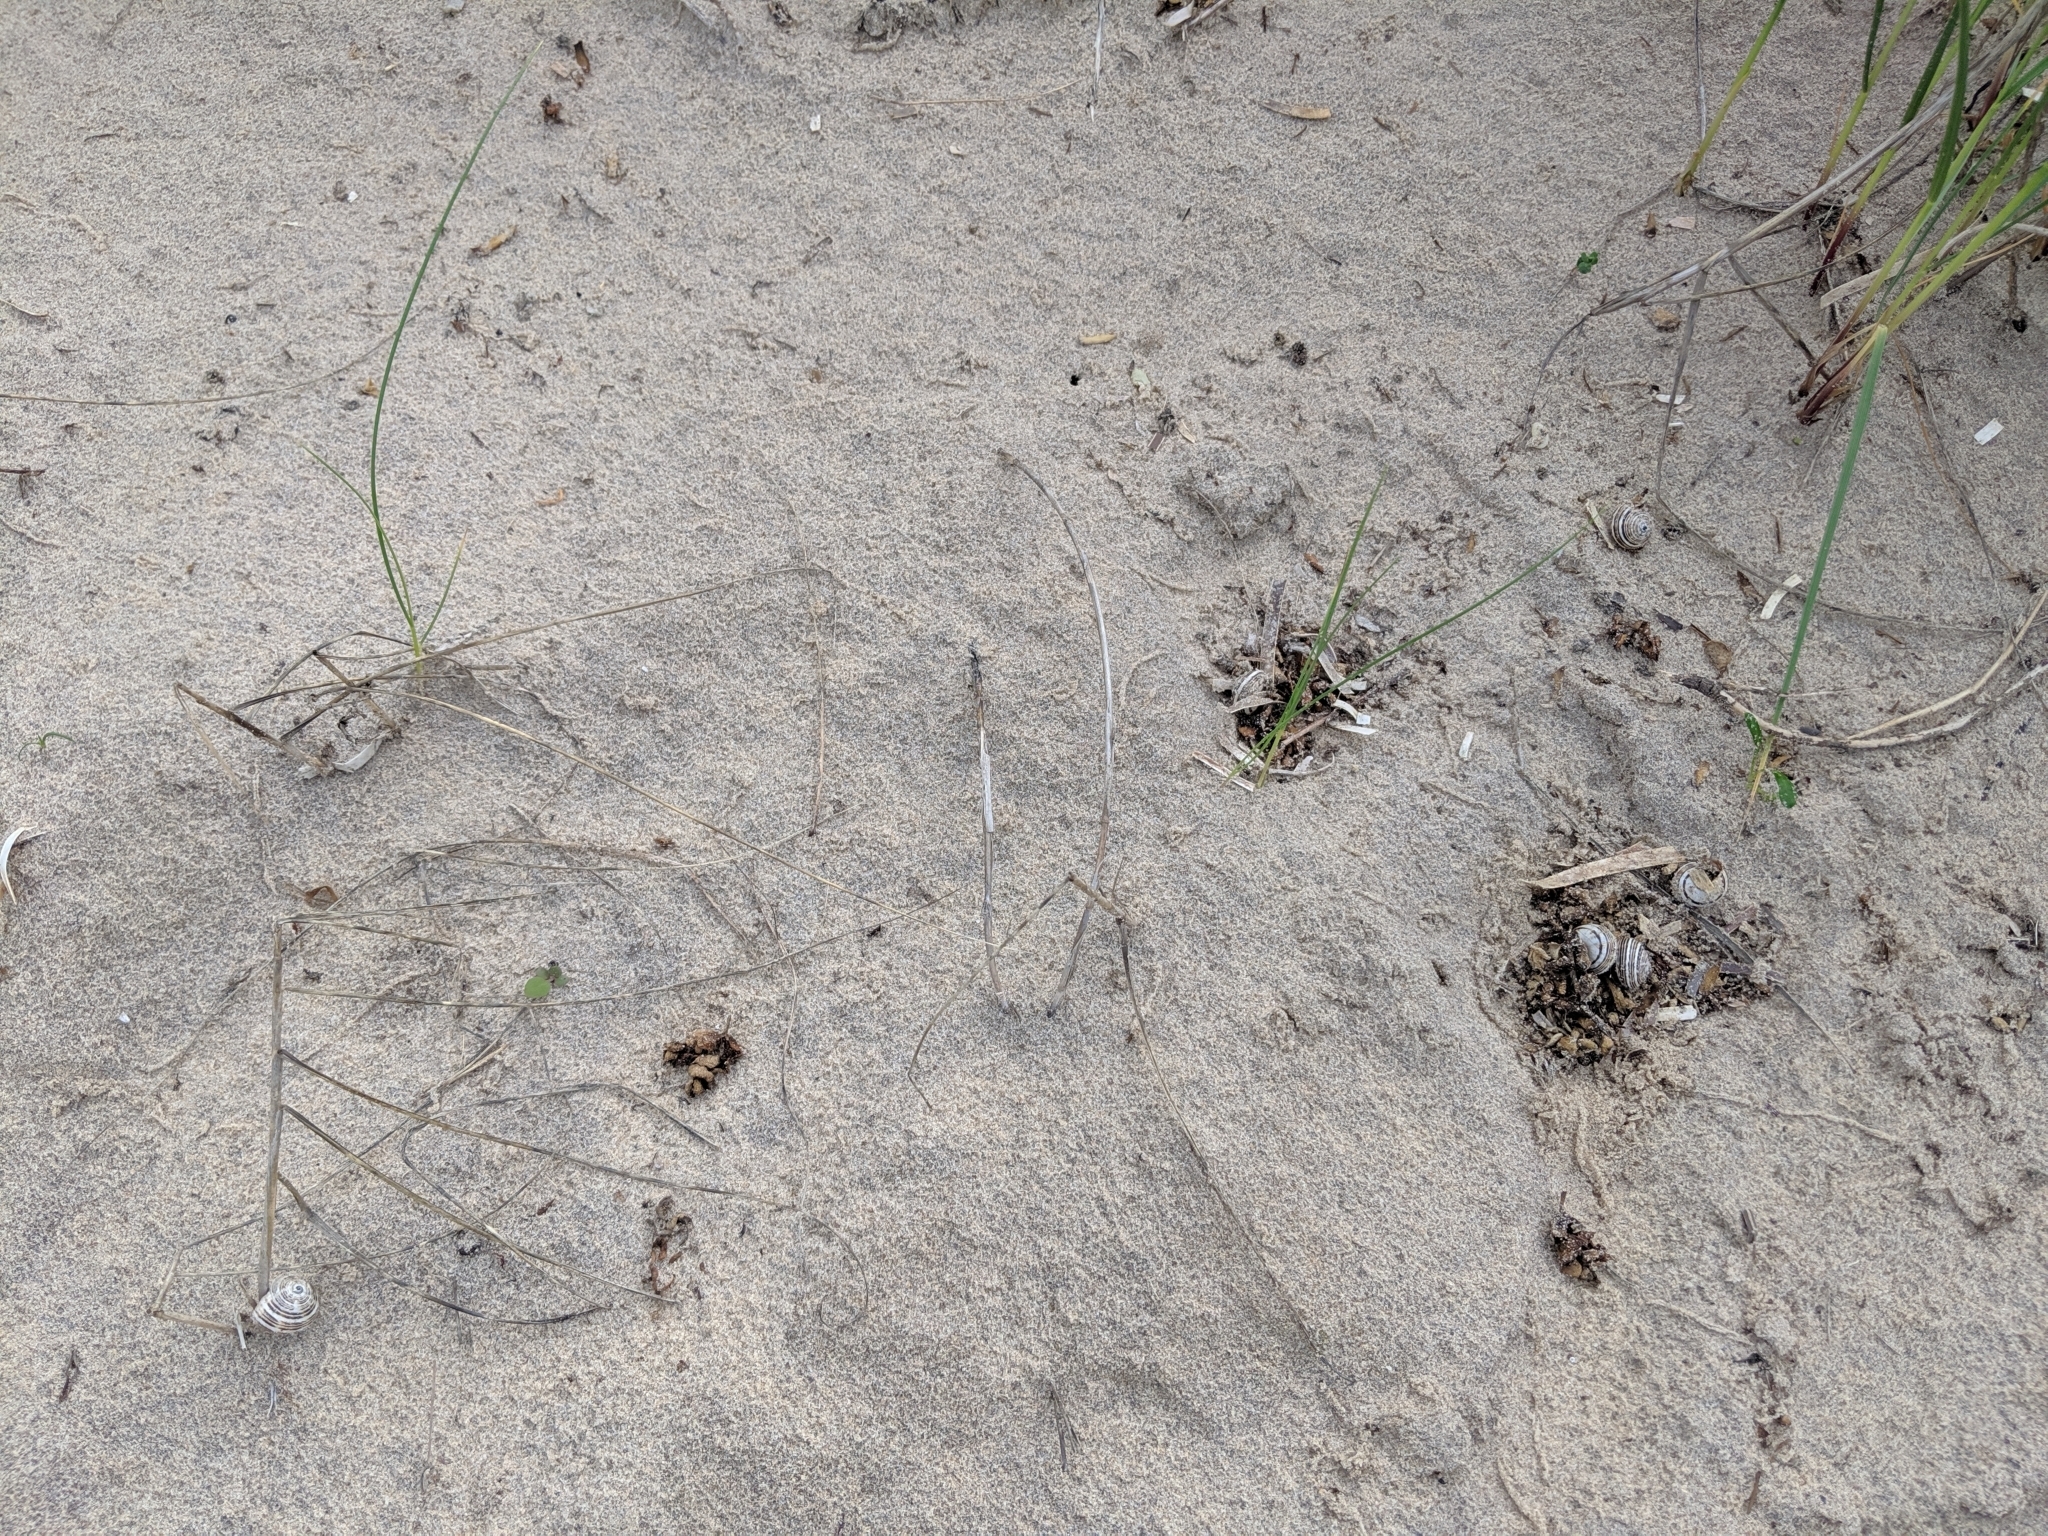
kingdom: Animalia
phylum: Mollusca
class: Gastropoda
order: Stylommatophora
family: Helicidae
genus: Theba
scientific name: Theba pisana
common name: White snail
